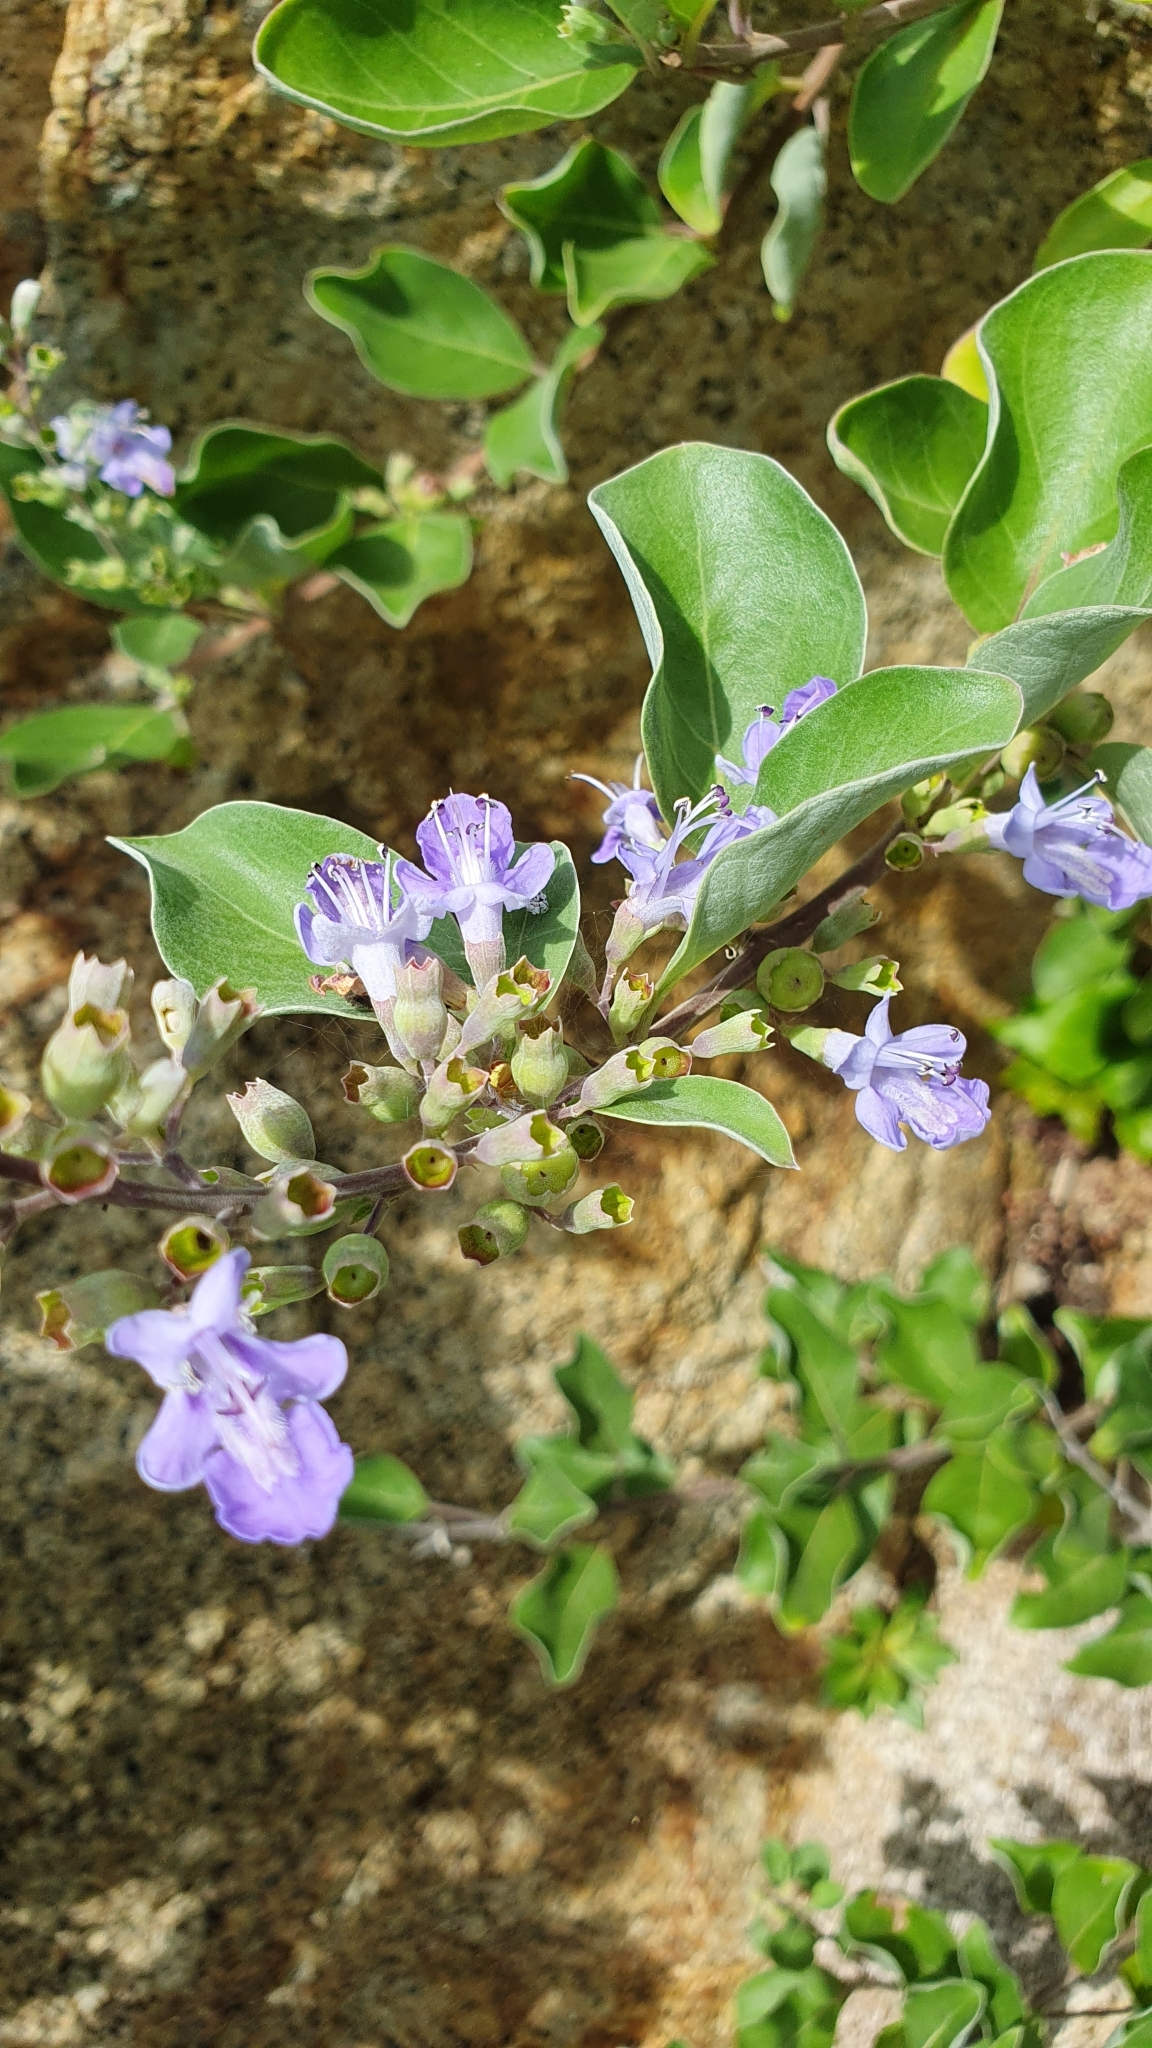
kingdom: Plantae
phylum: Tracheophyta
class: Magnoliopsida
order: Lamiales
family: Lamiaceae
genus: Vitex
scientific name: Vitex rotundifolia
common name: Beach vitex
